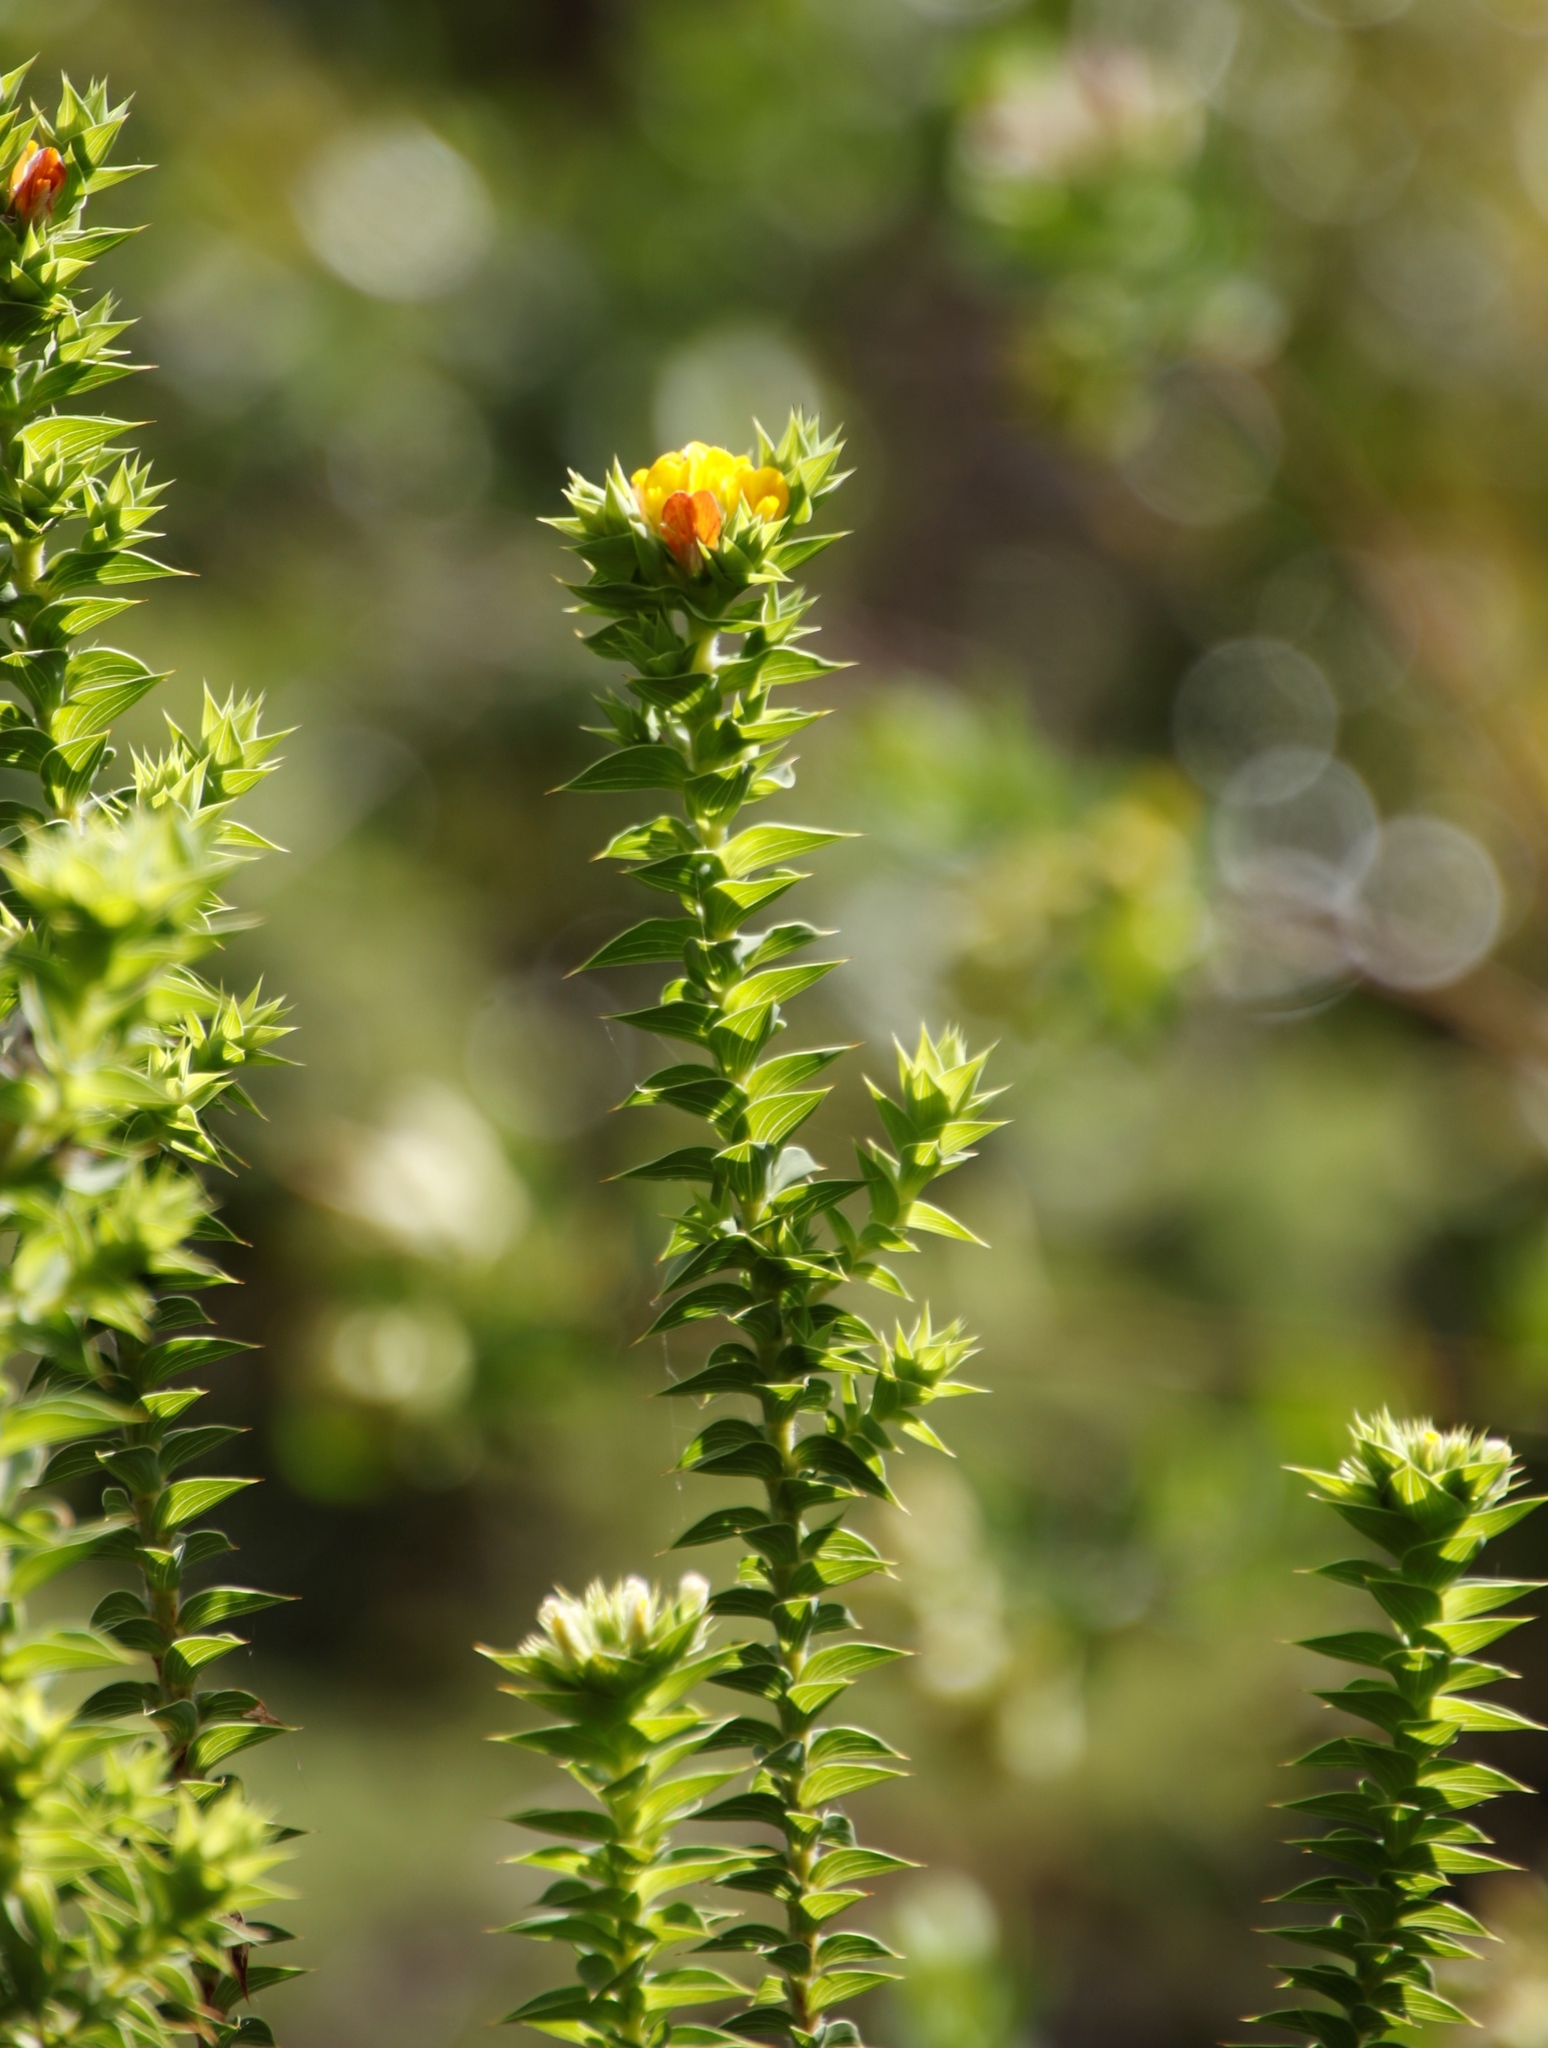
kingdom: Plantae
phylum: Tracheophyta
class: Magnoliopsida
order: Fabales
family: Fabaceae
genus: Aspalathus
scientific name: Aspalathus cordata
